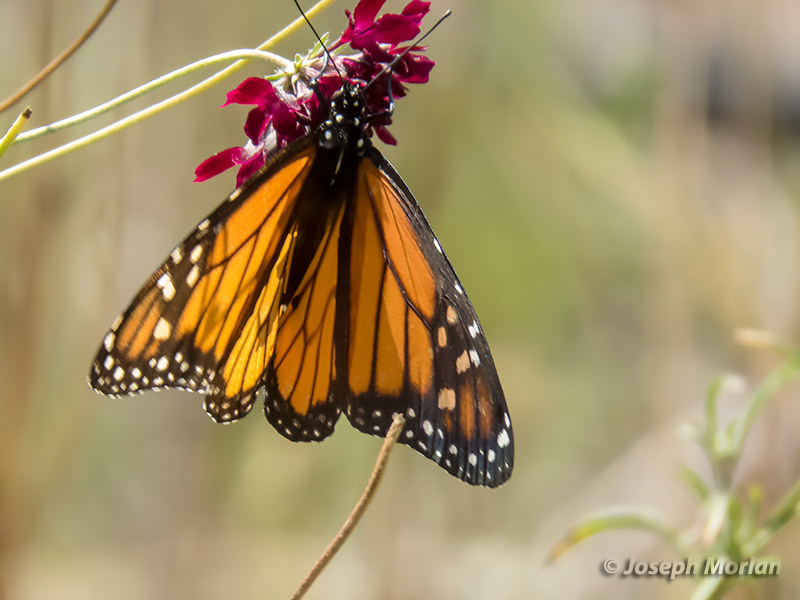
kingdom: Animalia
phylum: Arthropoda
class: Insecta
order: Lepidoptera
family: Nymphalidae
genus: Danaus
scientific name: Danaus plexippus
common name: Monarch
